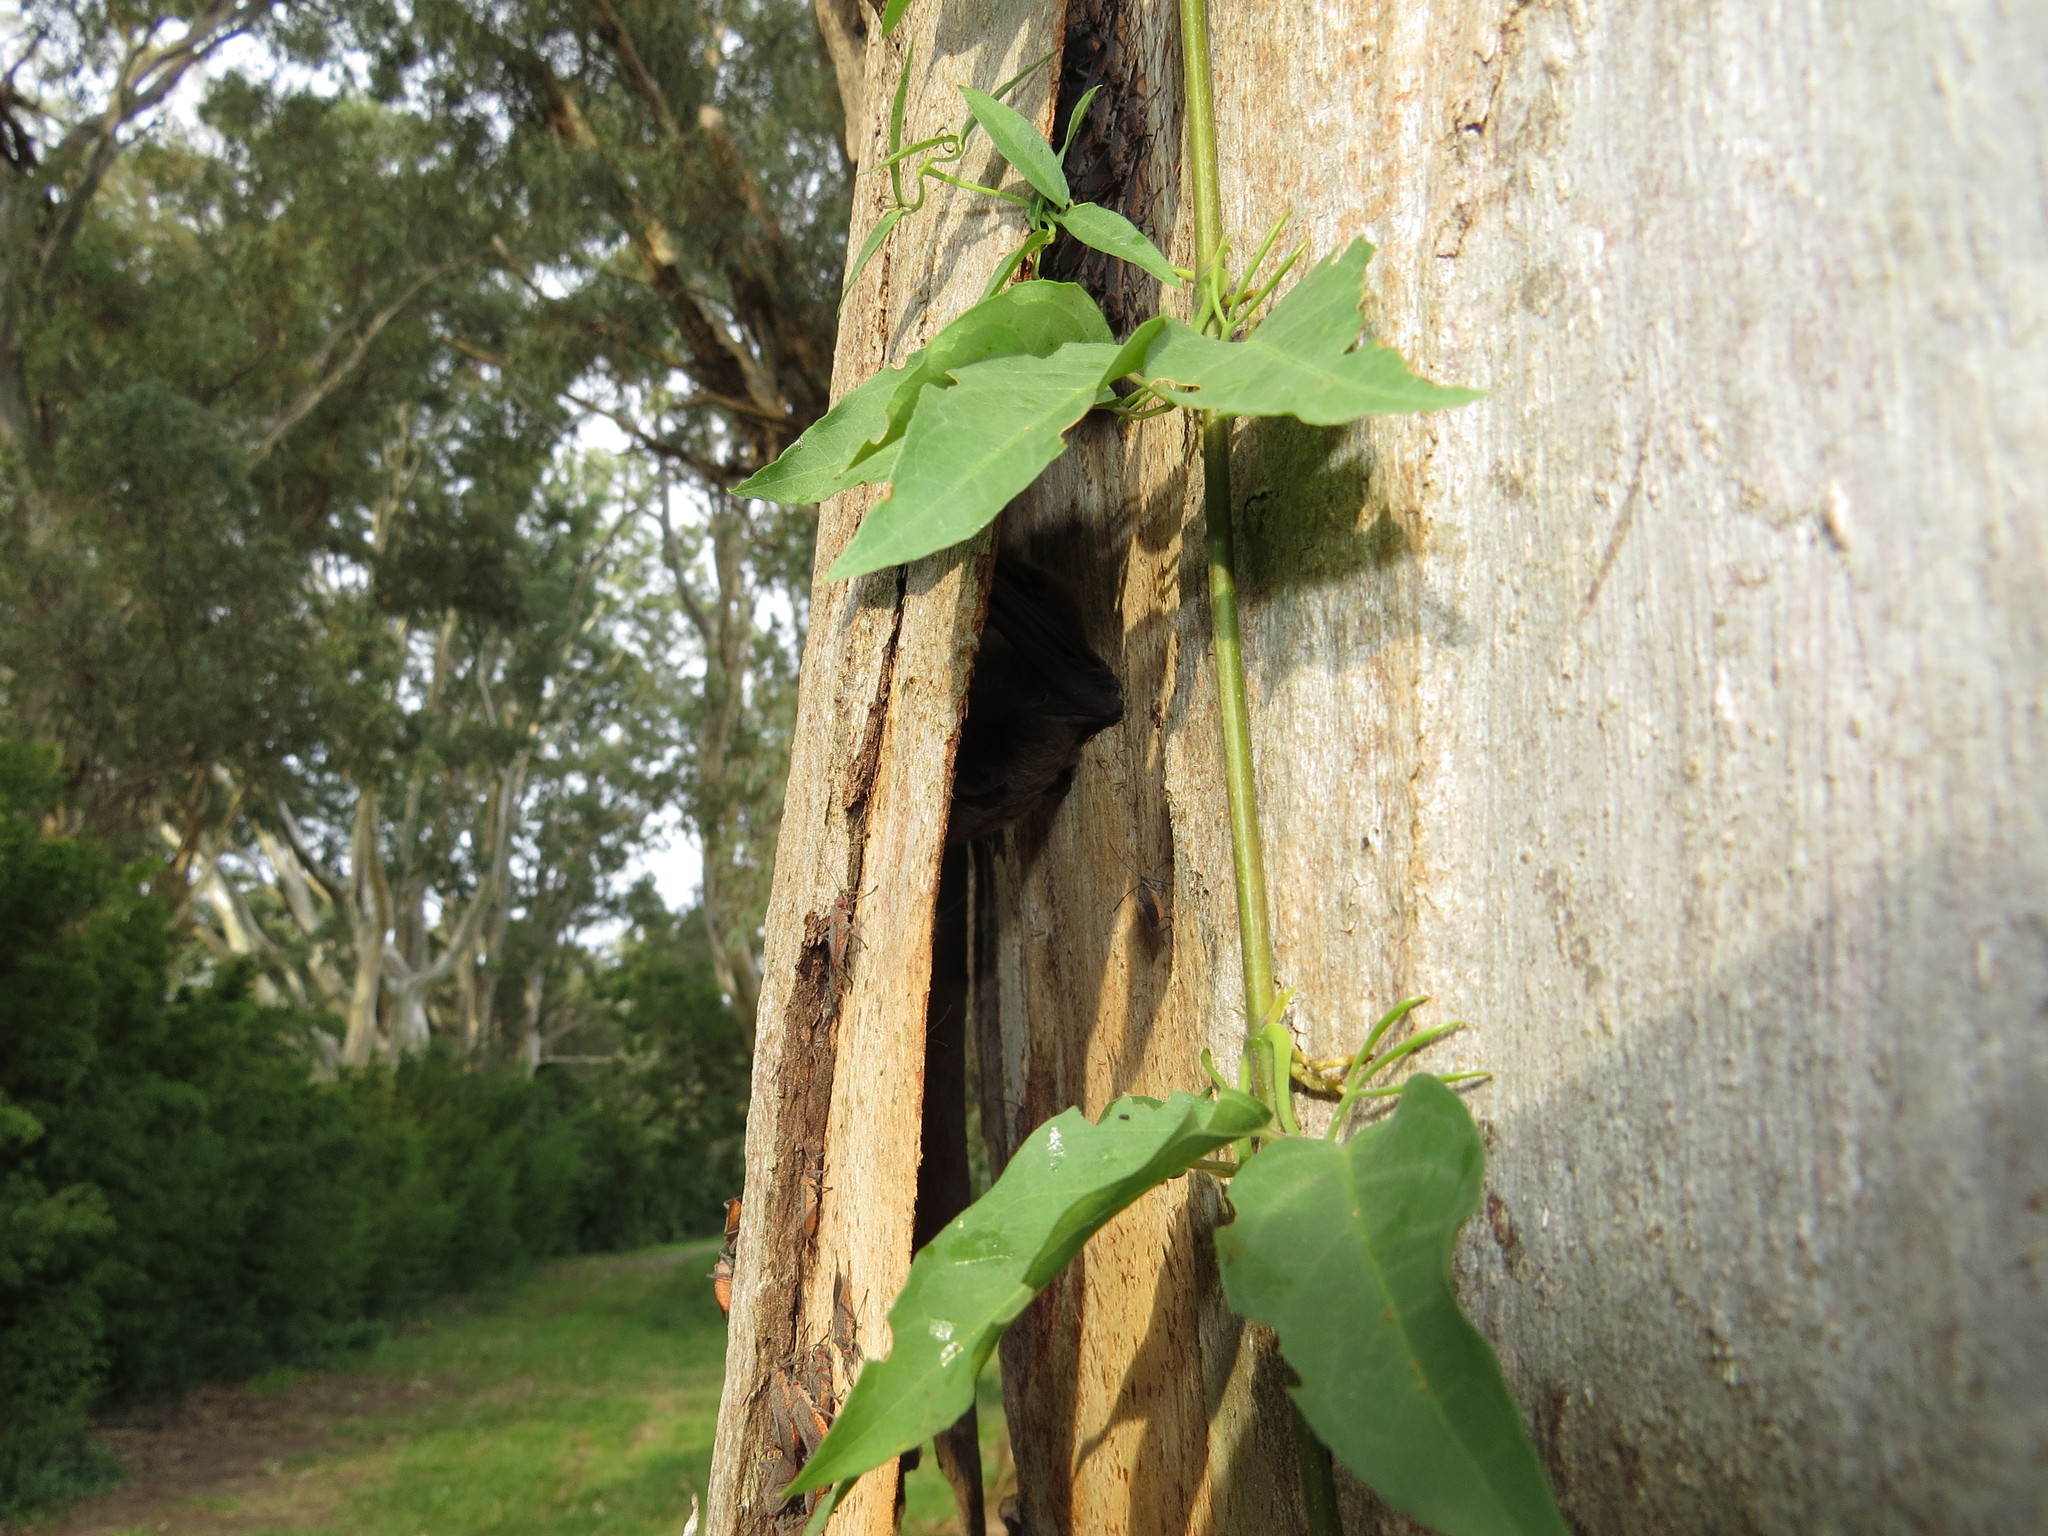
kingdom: Plantae
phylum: Tracheophyta
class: Magnoliopsida
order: Lamiales
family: Bignoniaceae
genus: Dolichandra
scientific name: Dolichandra unguis-cati
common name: Catclaw vine
